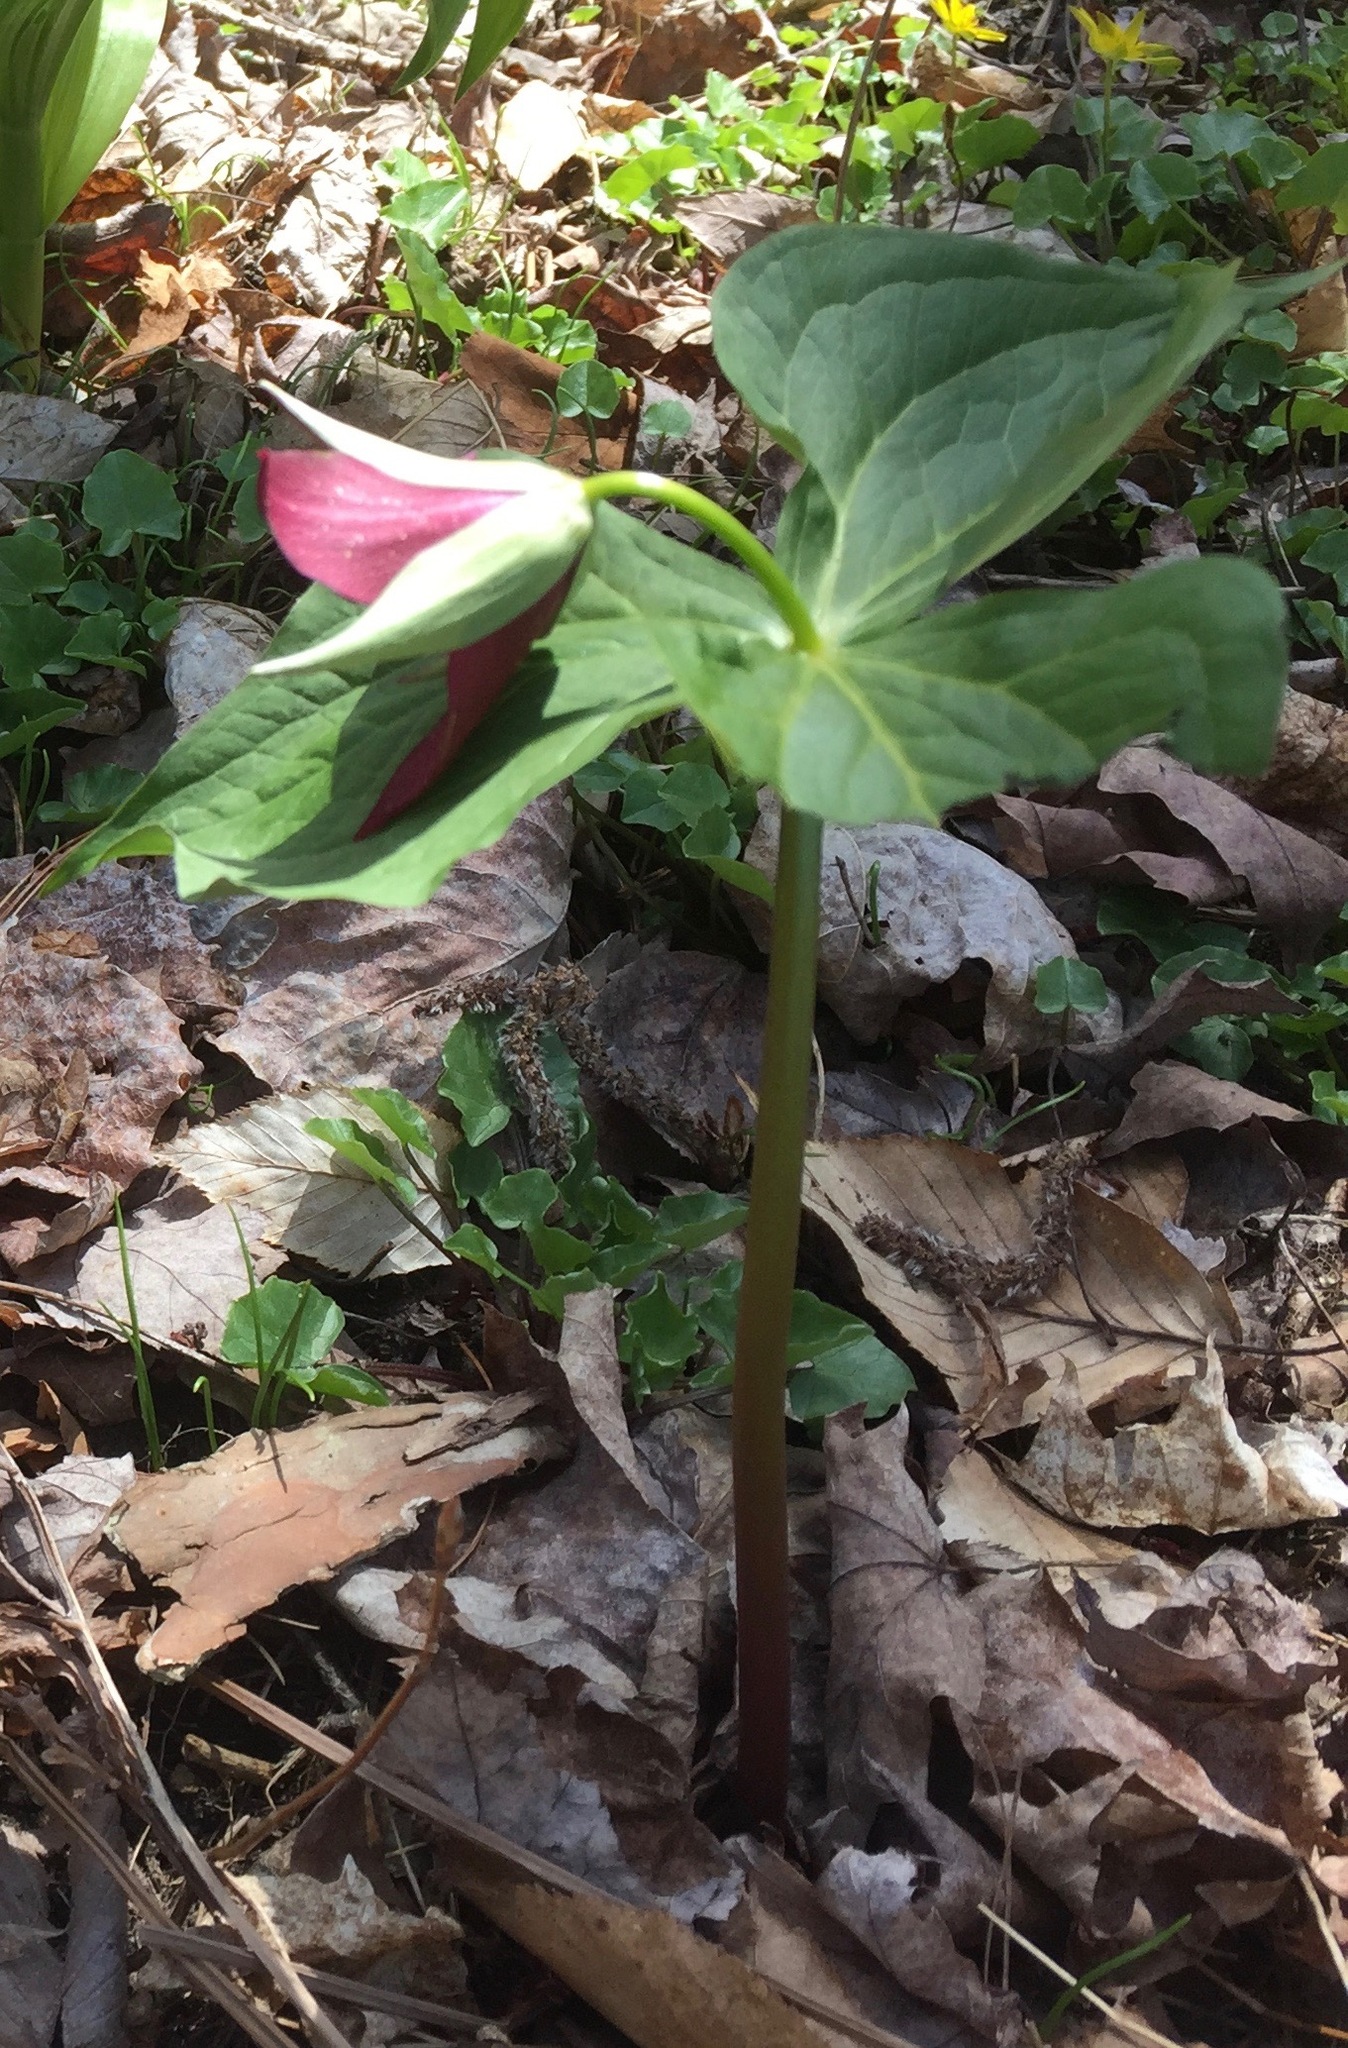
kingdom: Plantae
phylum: Tracheophyta
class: Liliopsida
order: Liliales
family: Melanthiaceae
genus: Trillium
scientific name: Trillium erectum
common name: Purple trillium
